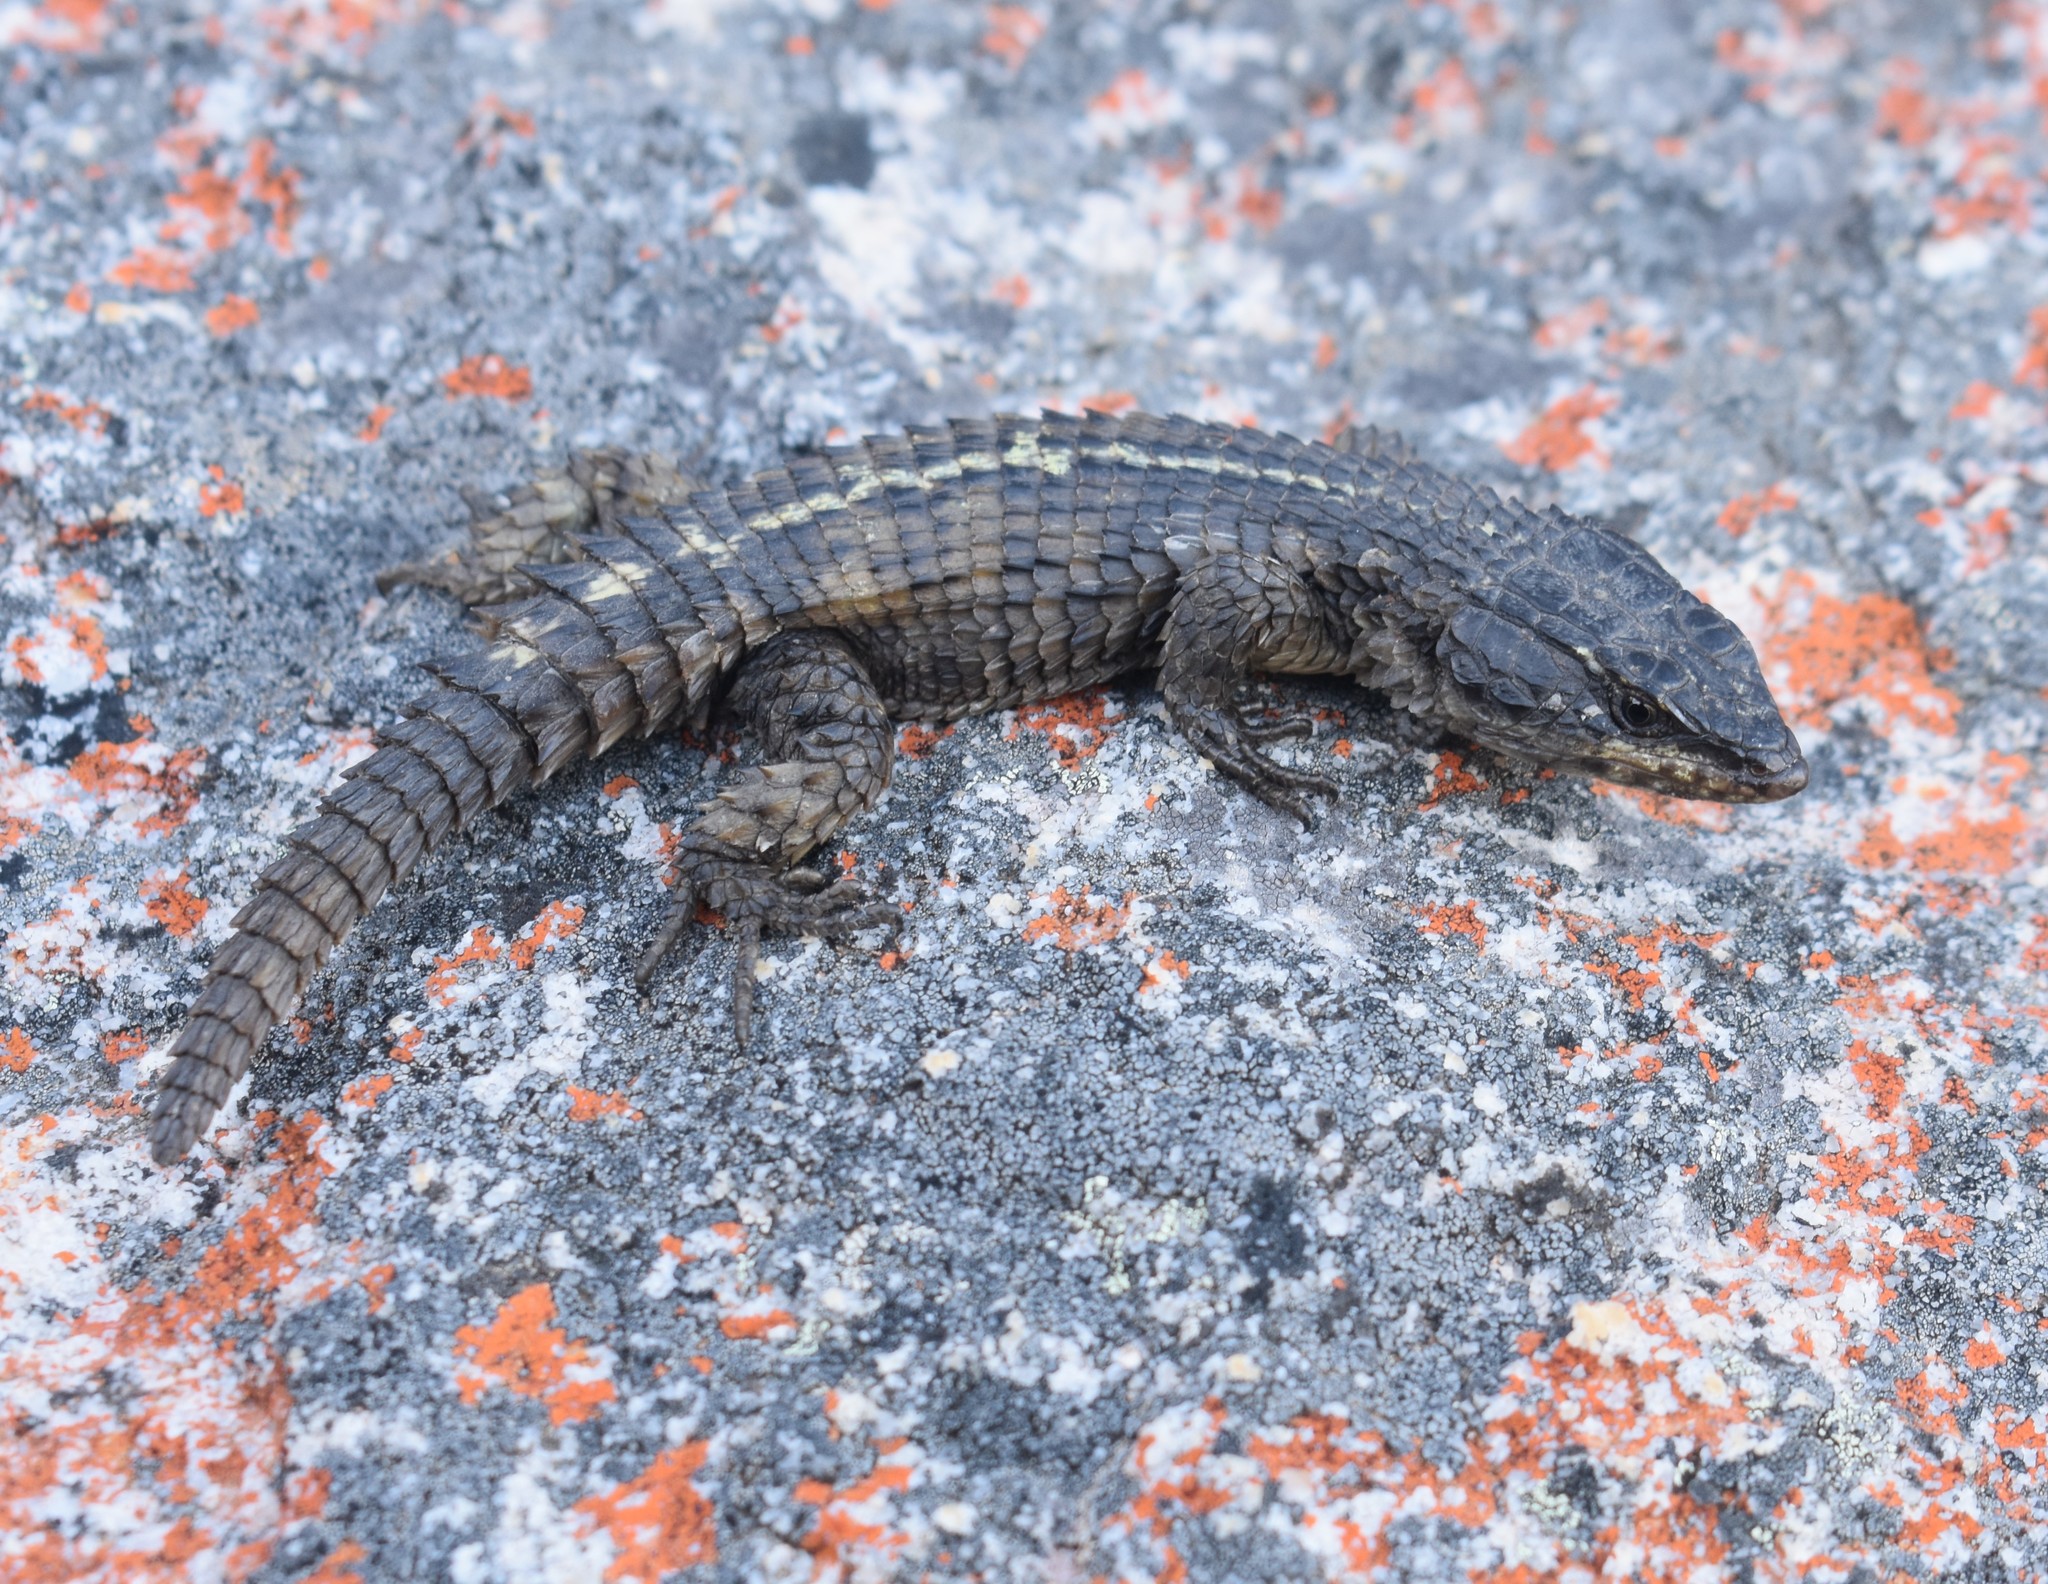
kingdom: Animalia
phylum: Chordata
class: Squamata
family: Cordylidae
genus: Cordylus
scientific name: Cordylus cordylus
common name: Cape girdled lizard
